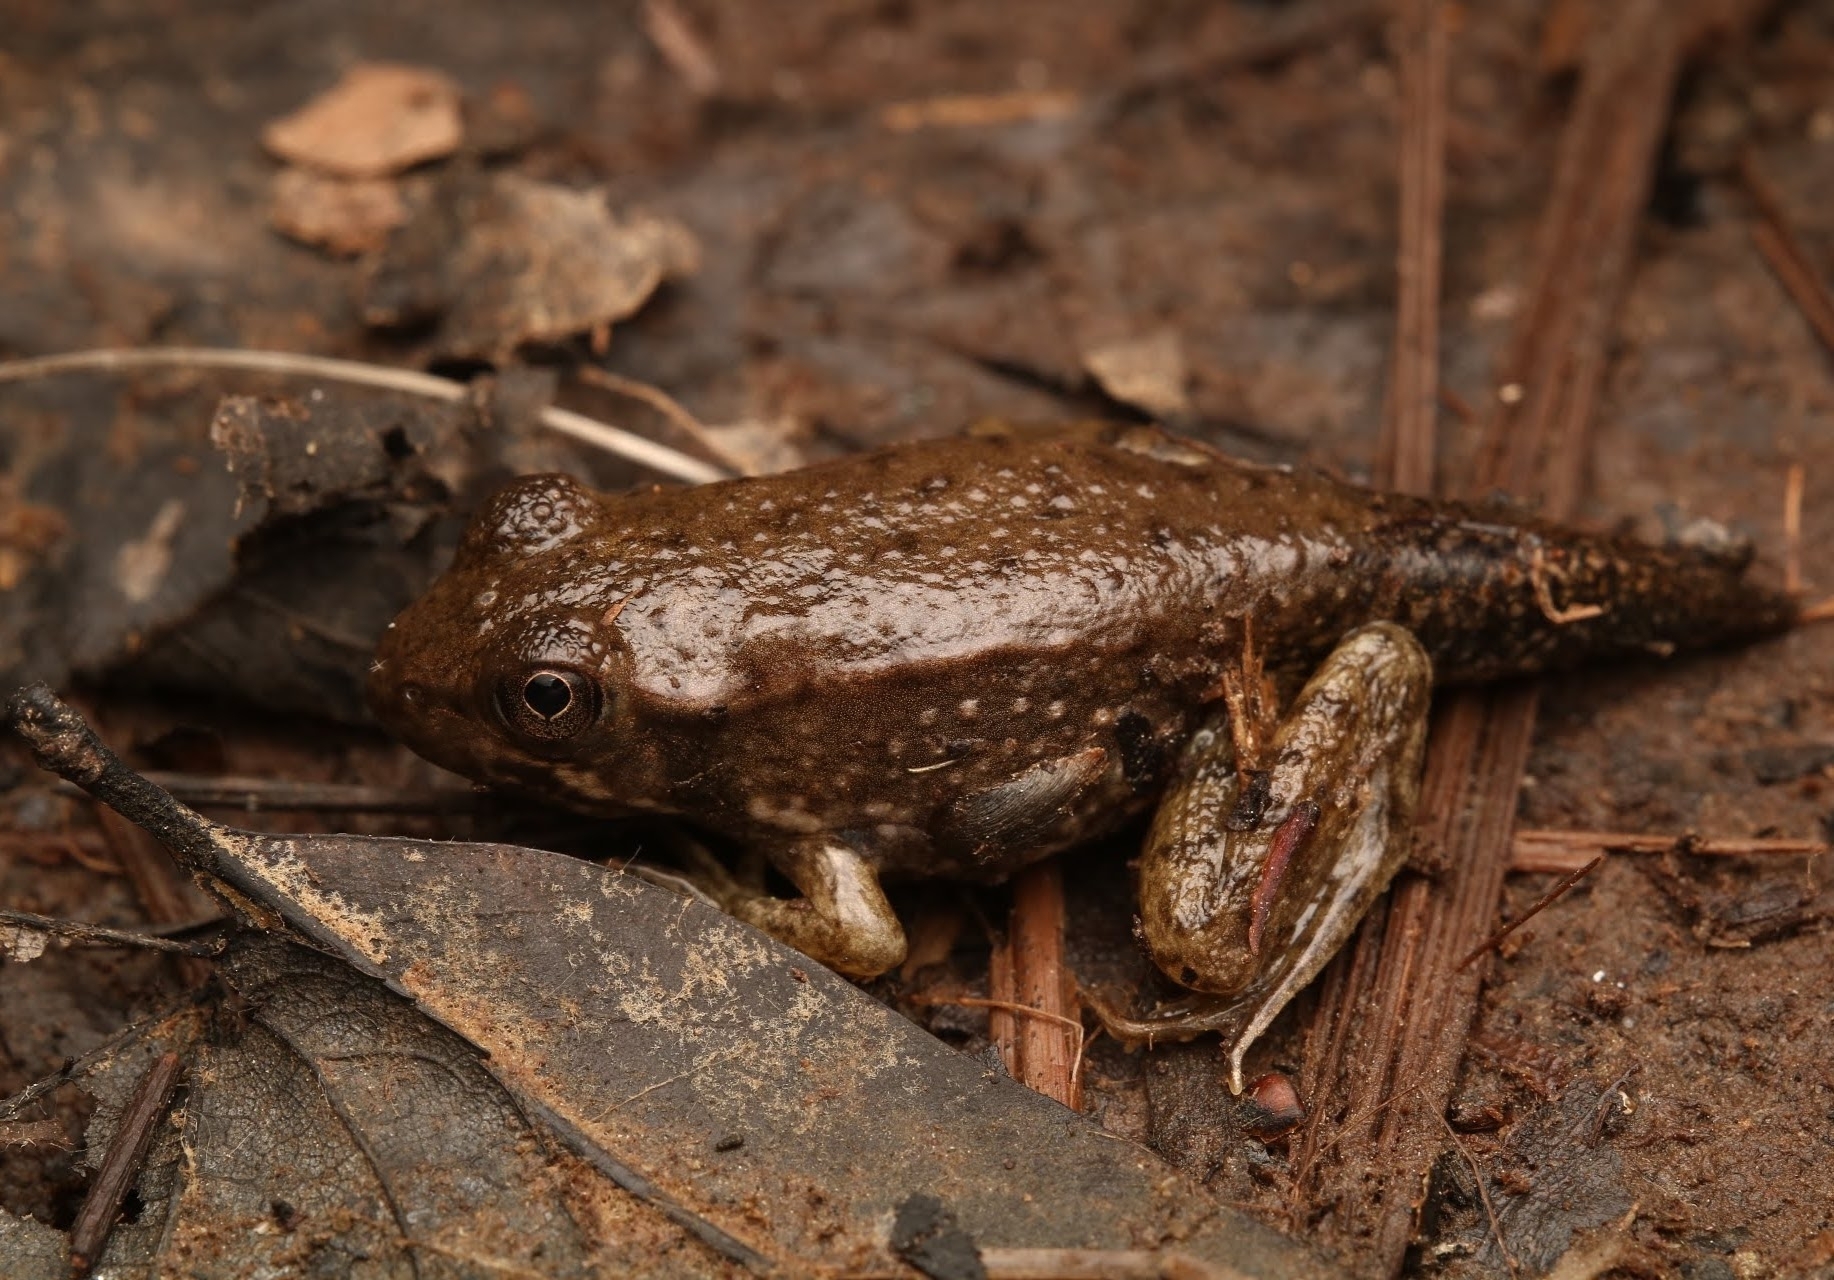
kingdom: Animalia
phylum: Chordata
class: Amphibia
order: Anura
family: Ranidae
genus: Lithobates
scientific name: Lithobates clamitans
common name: Green frog
